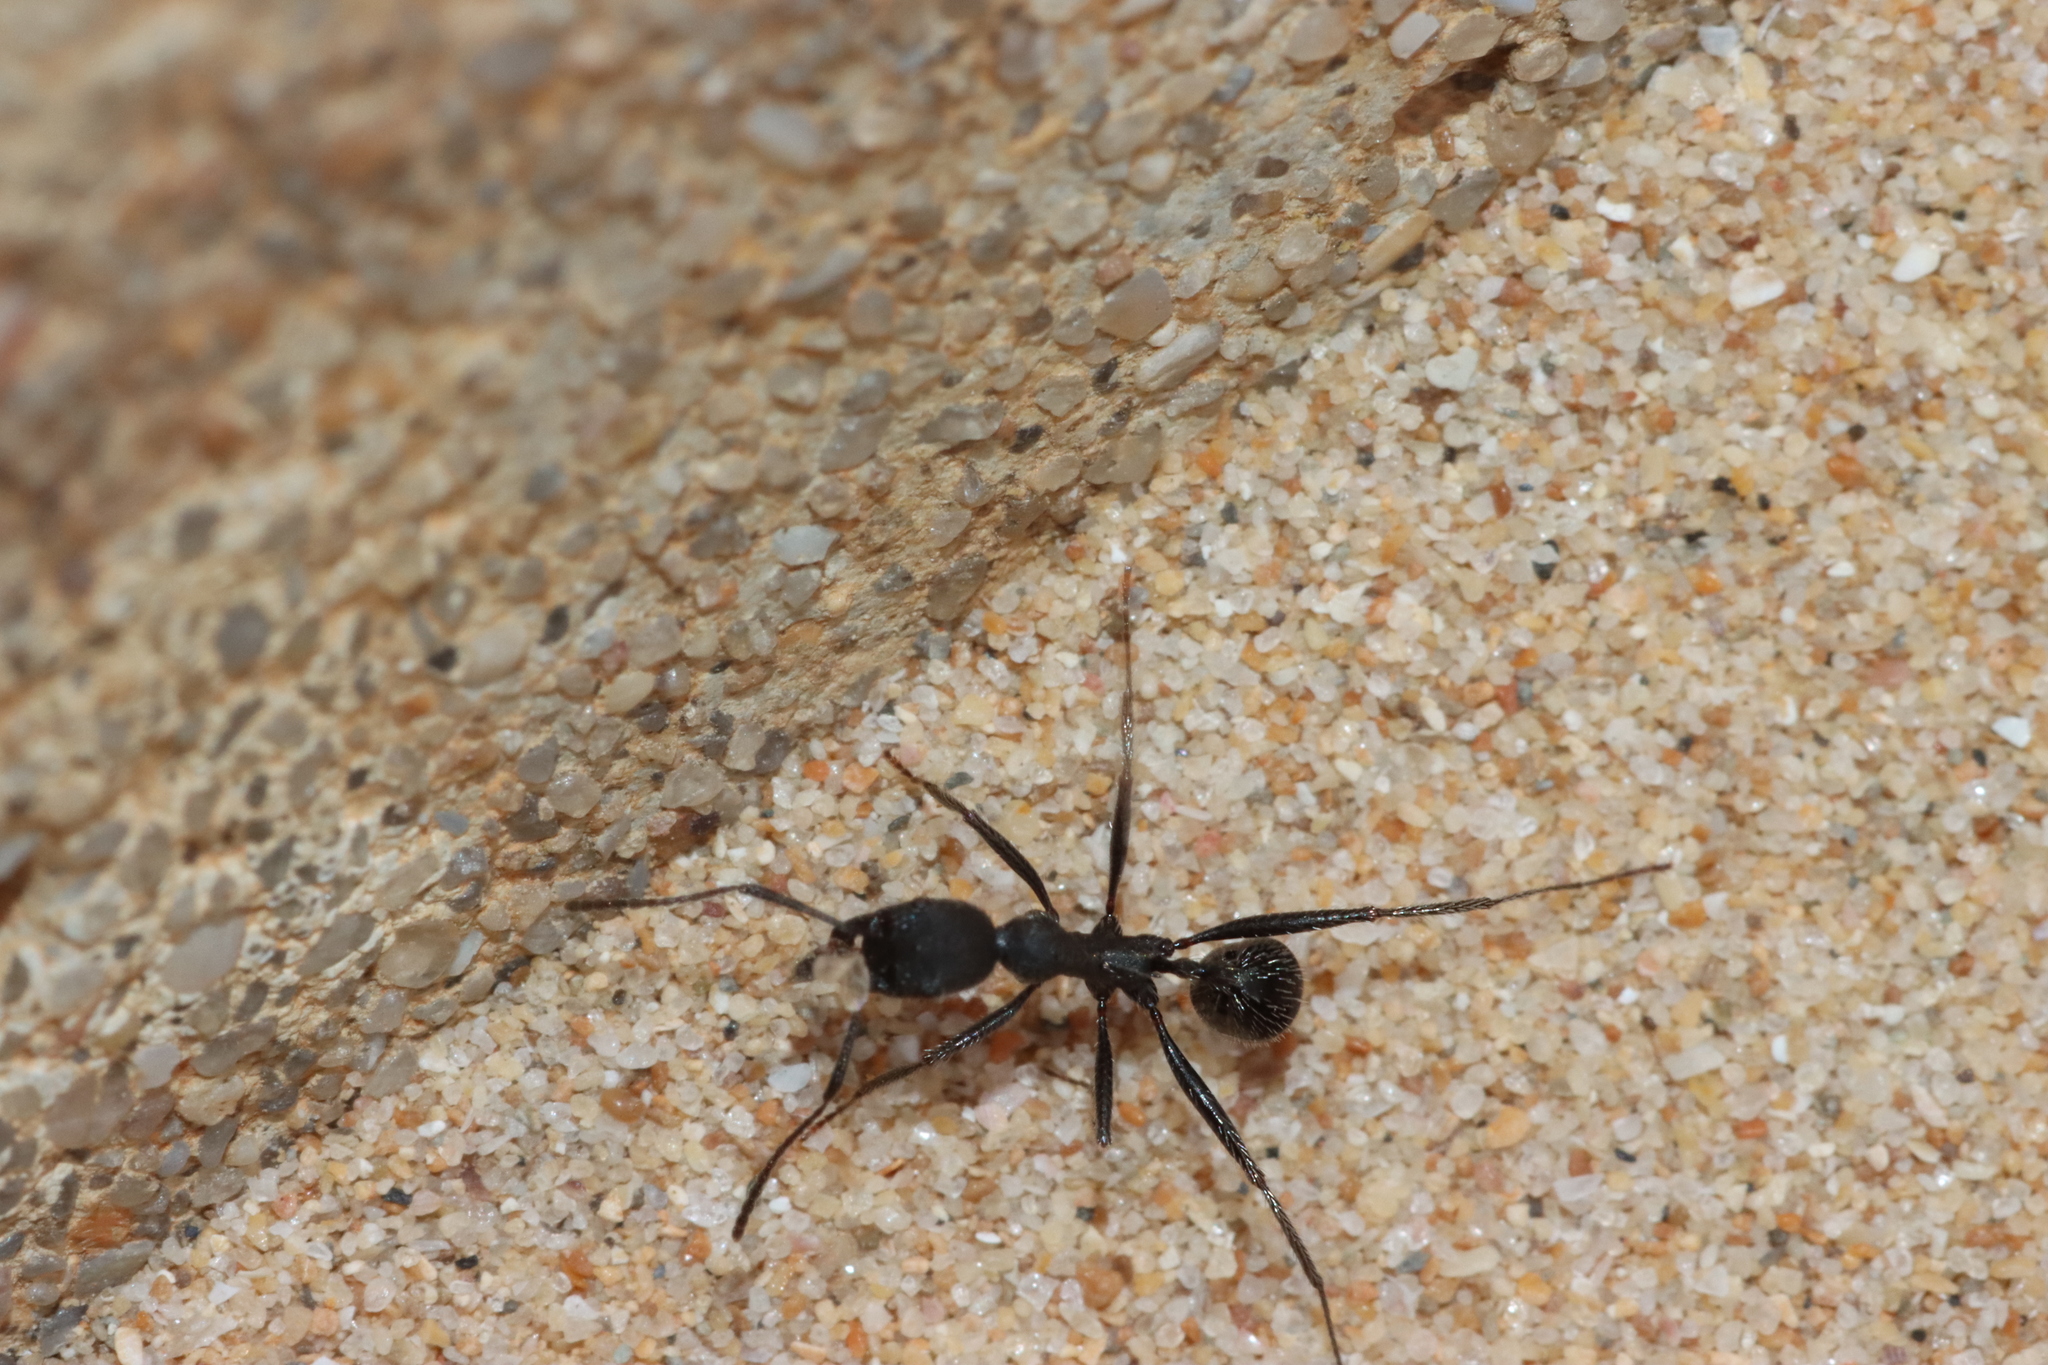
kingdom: Animalia
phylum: Arthropoda
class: Insecta
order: Hymenoptera
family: Formicidae
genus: Aphaenogaster
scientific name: Aphaenogaster senilis
